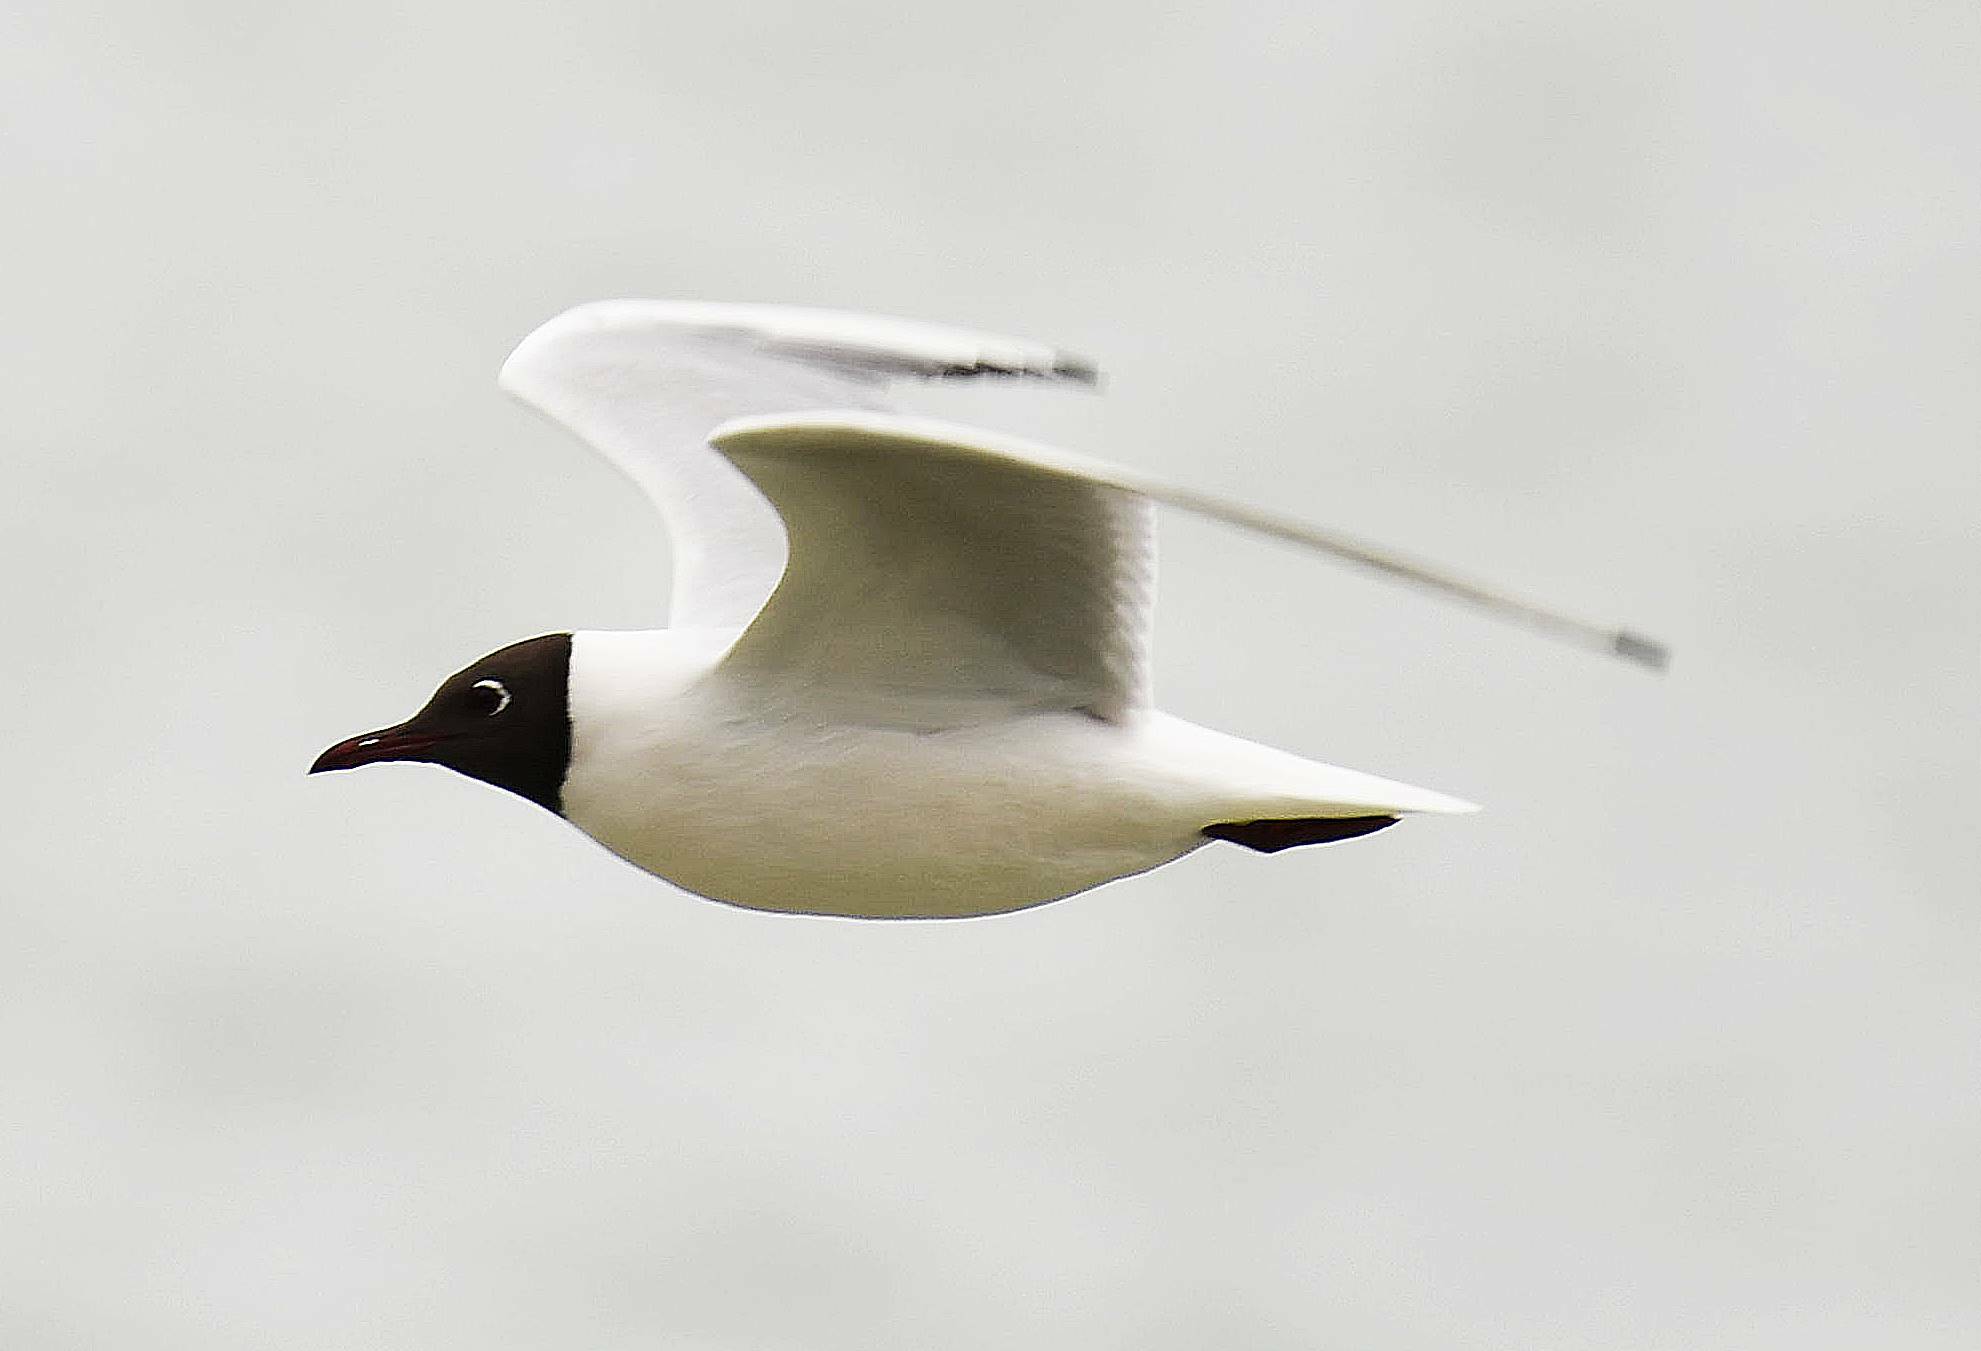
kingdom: Animalia
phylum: Chordata
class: Aves
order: Charadriiformes
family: Laridae
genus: Chroicocephalus
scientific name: Chroicocephalus ridibundus
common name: Black-headed gull
